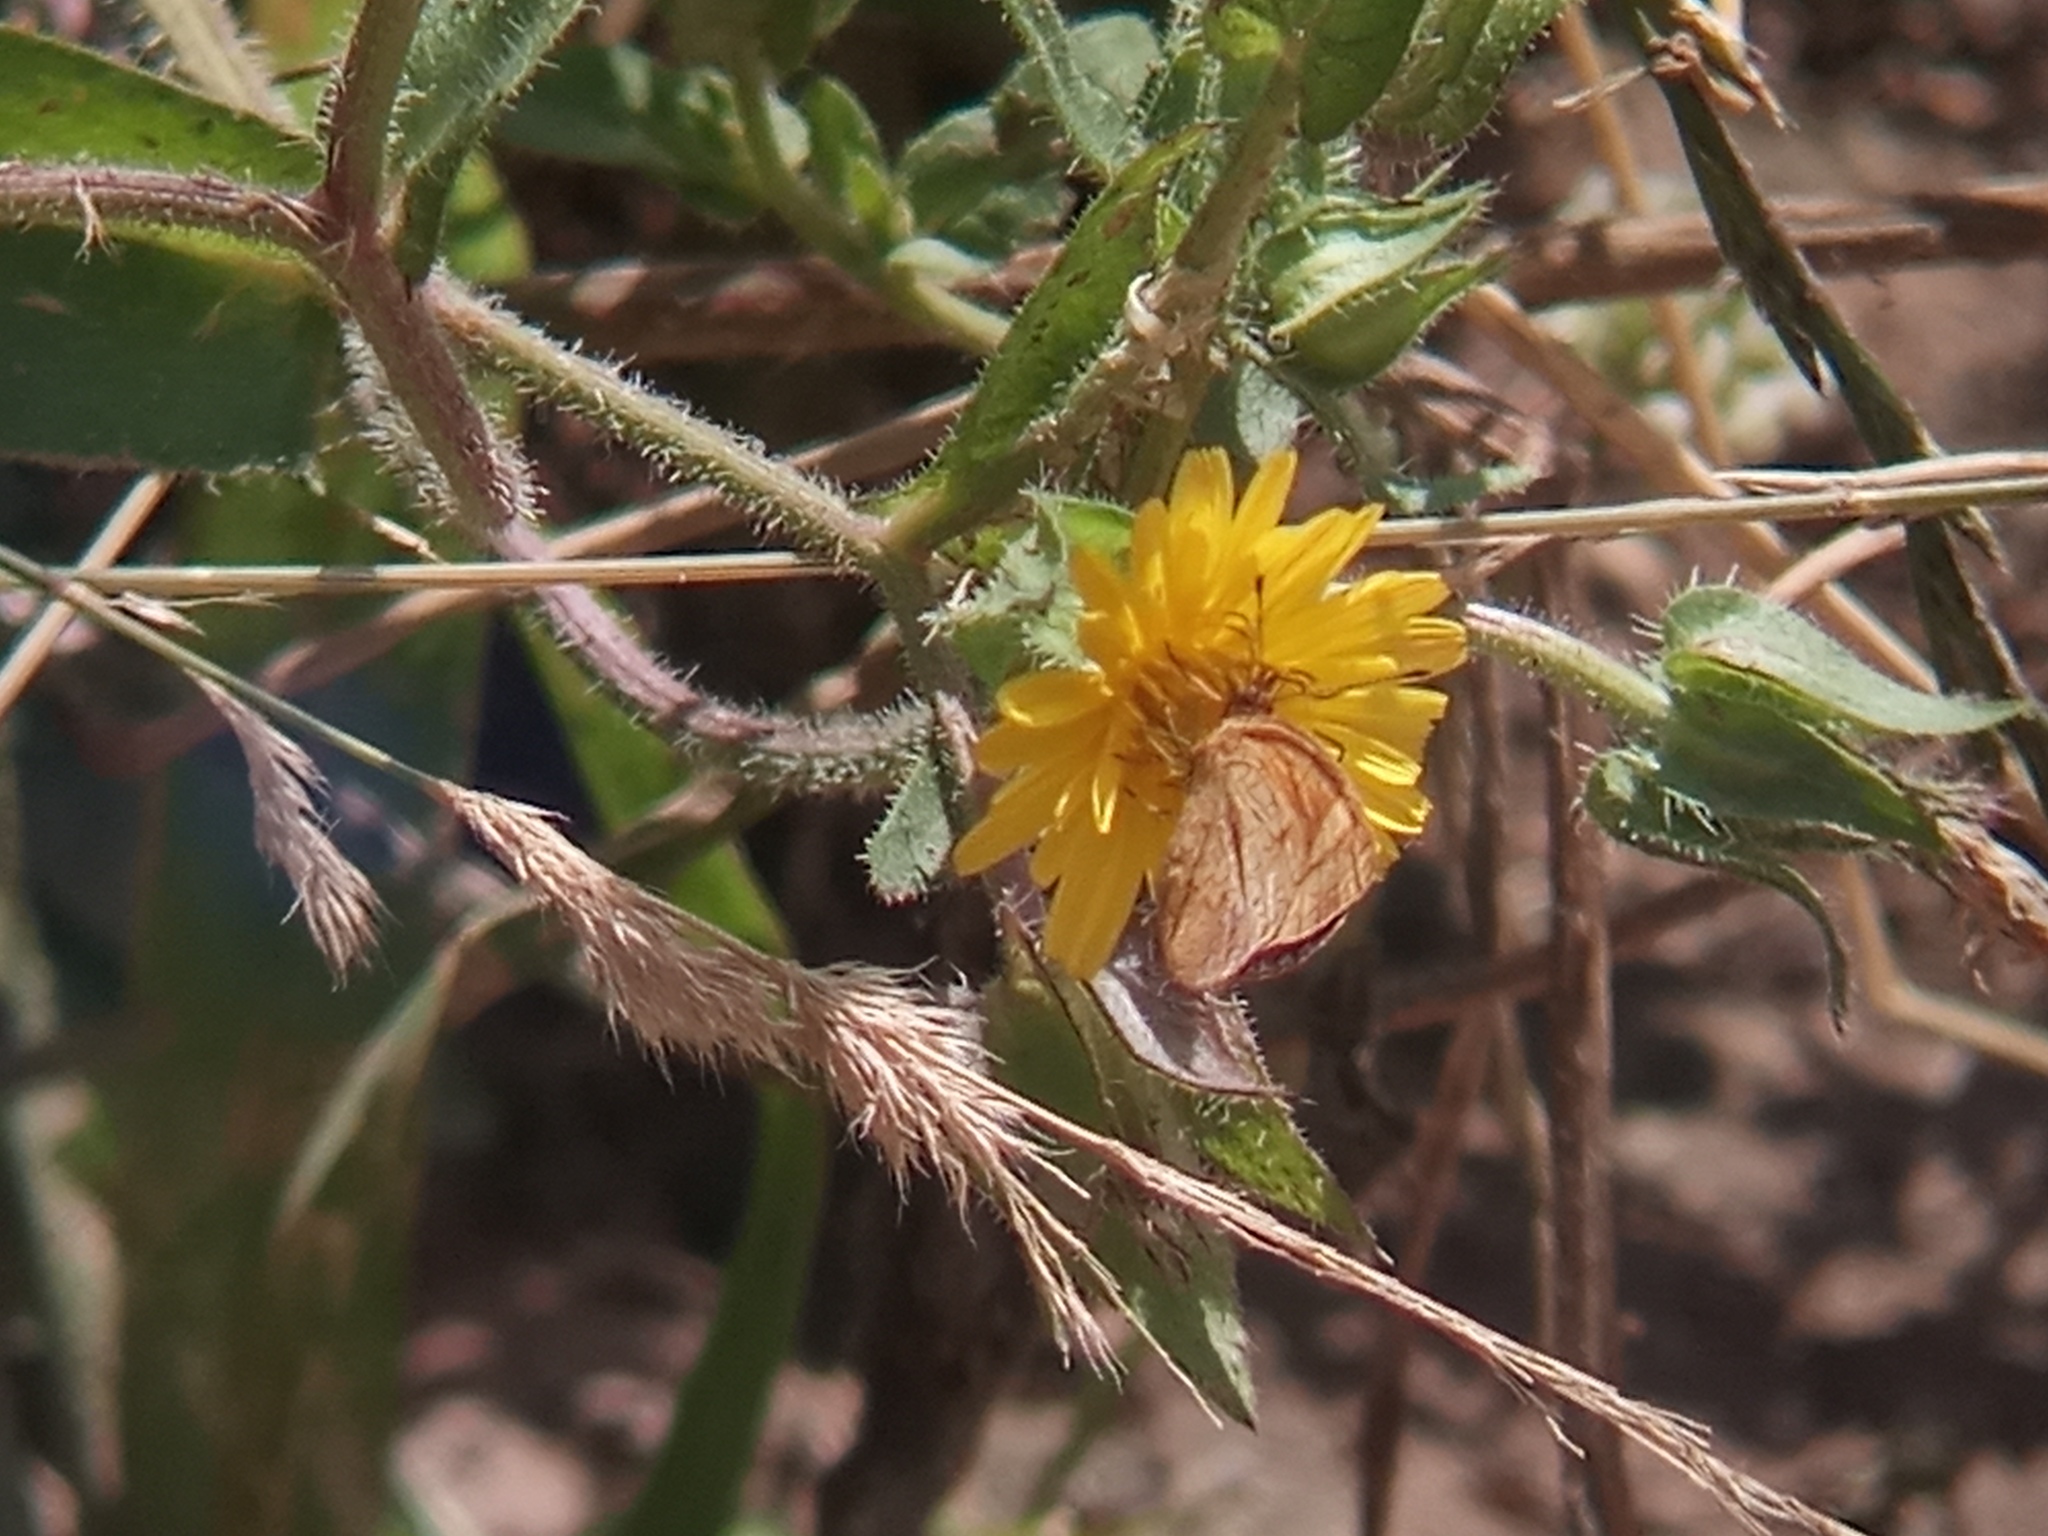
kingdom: Animalia
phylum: Arthropoda
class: Insecta
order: Lepidoptera
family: Nymphalidae
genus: Tegosa
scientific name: Tegosa claudina
